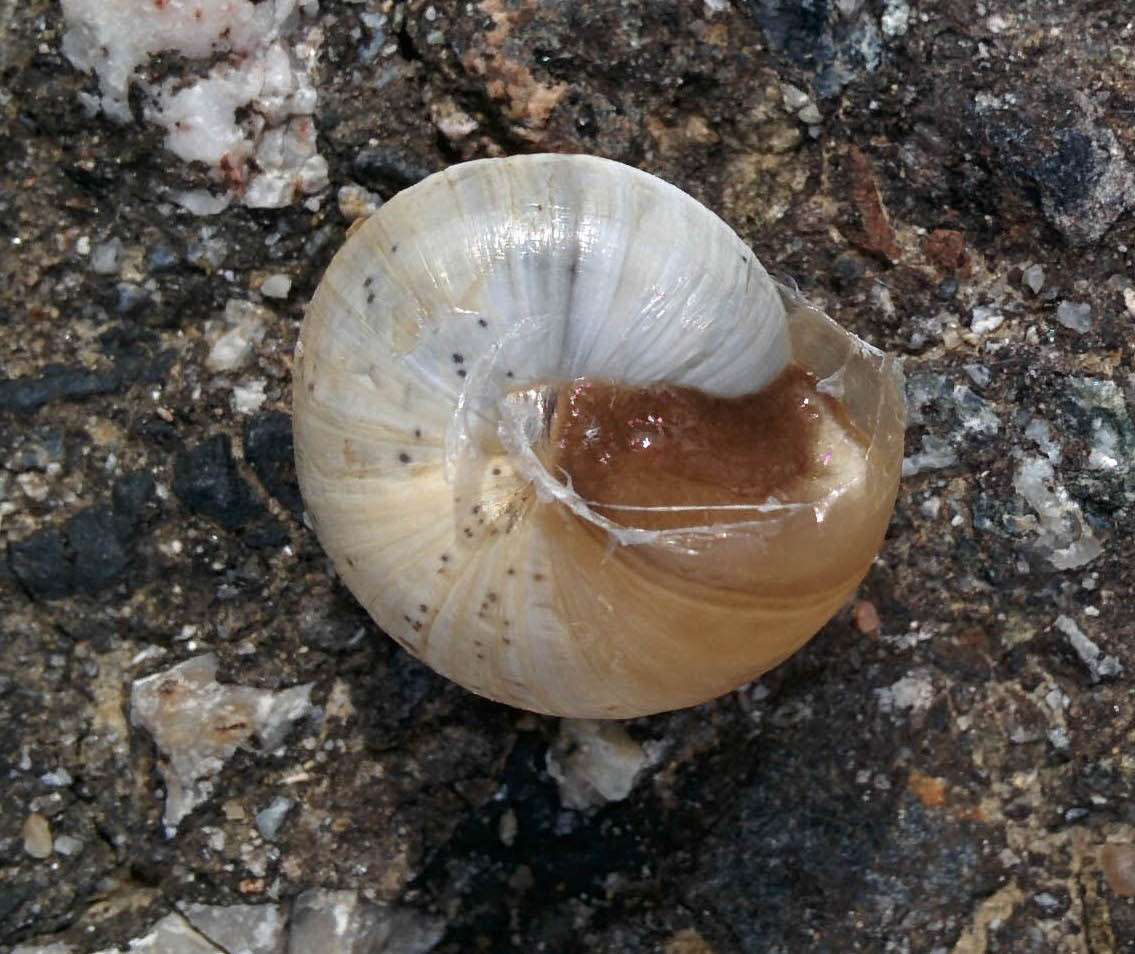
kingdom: Animalia
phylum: Mollusca
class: Gastropoda
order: Stylommatophora
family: Helicidae
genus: Theba
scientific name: Theba pisana
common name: White snail
